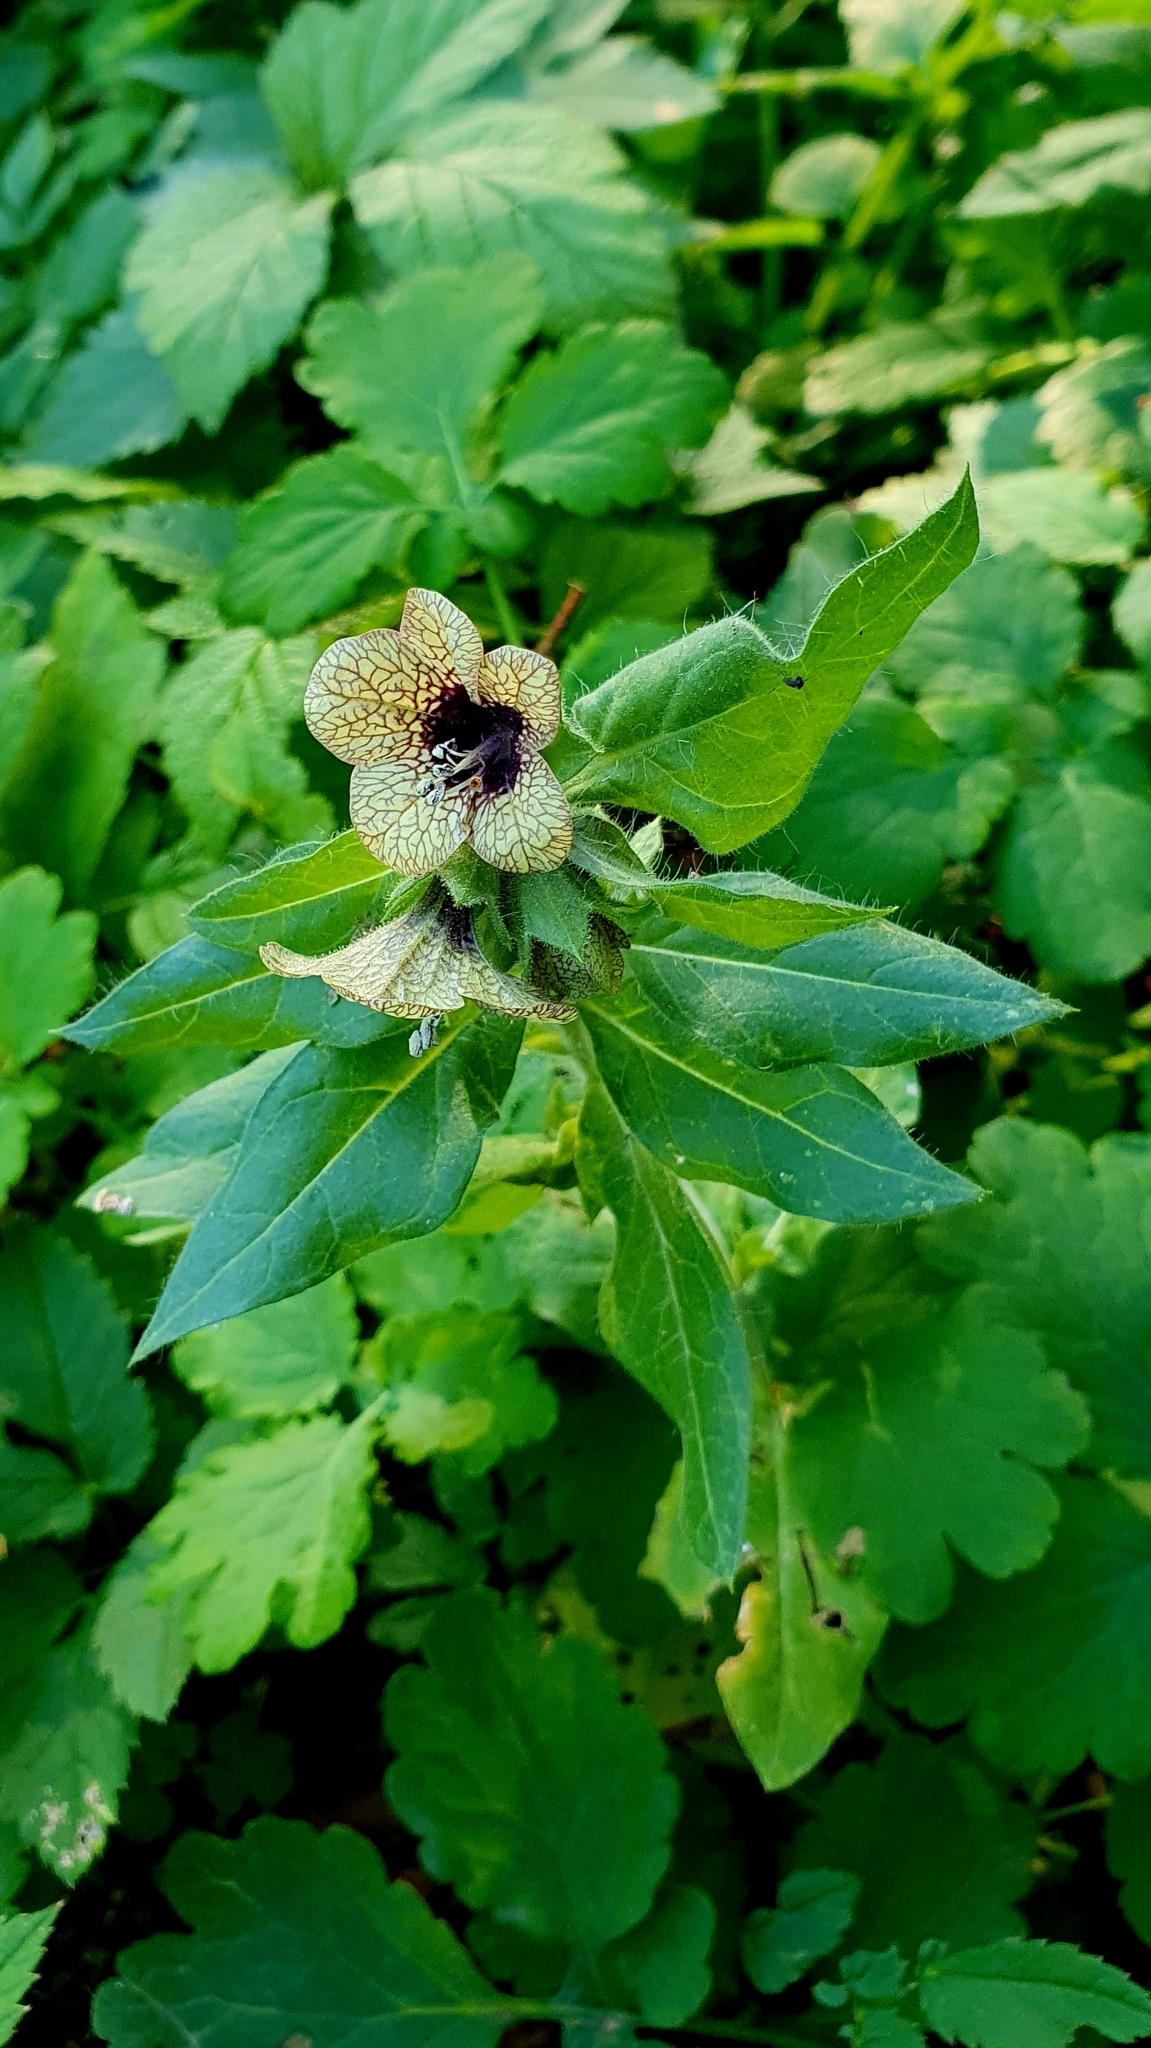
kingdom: Plantae
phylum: Tracheophyta
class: Magnoliopsida
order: Solanales
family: Solanaceae
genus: Hyoscyamus
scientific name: Hyoscyamus niger
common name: Henbane
